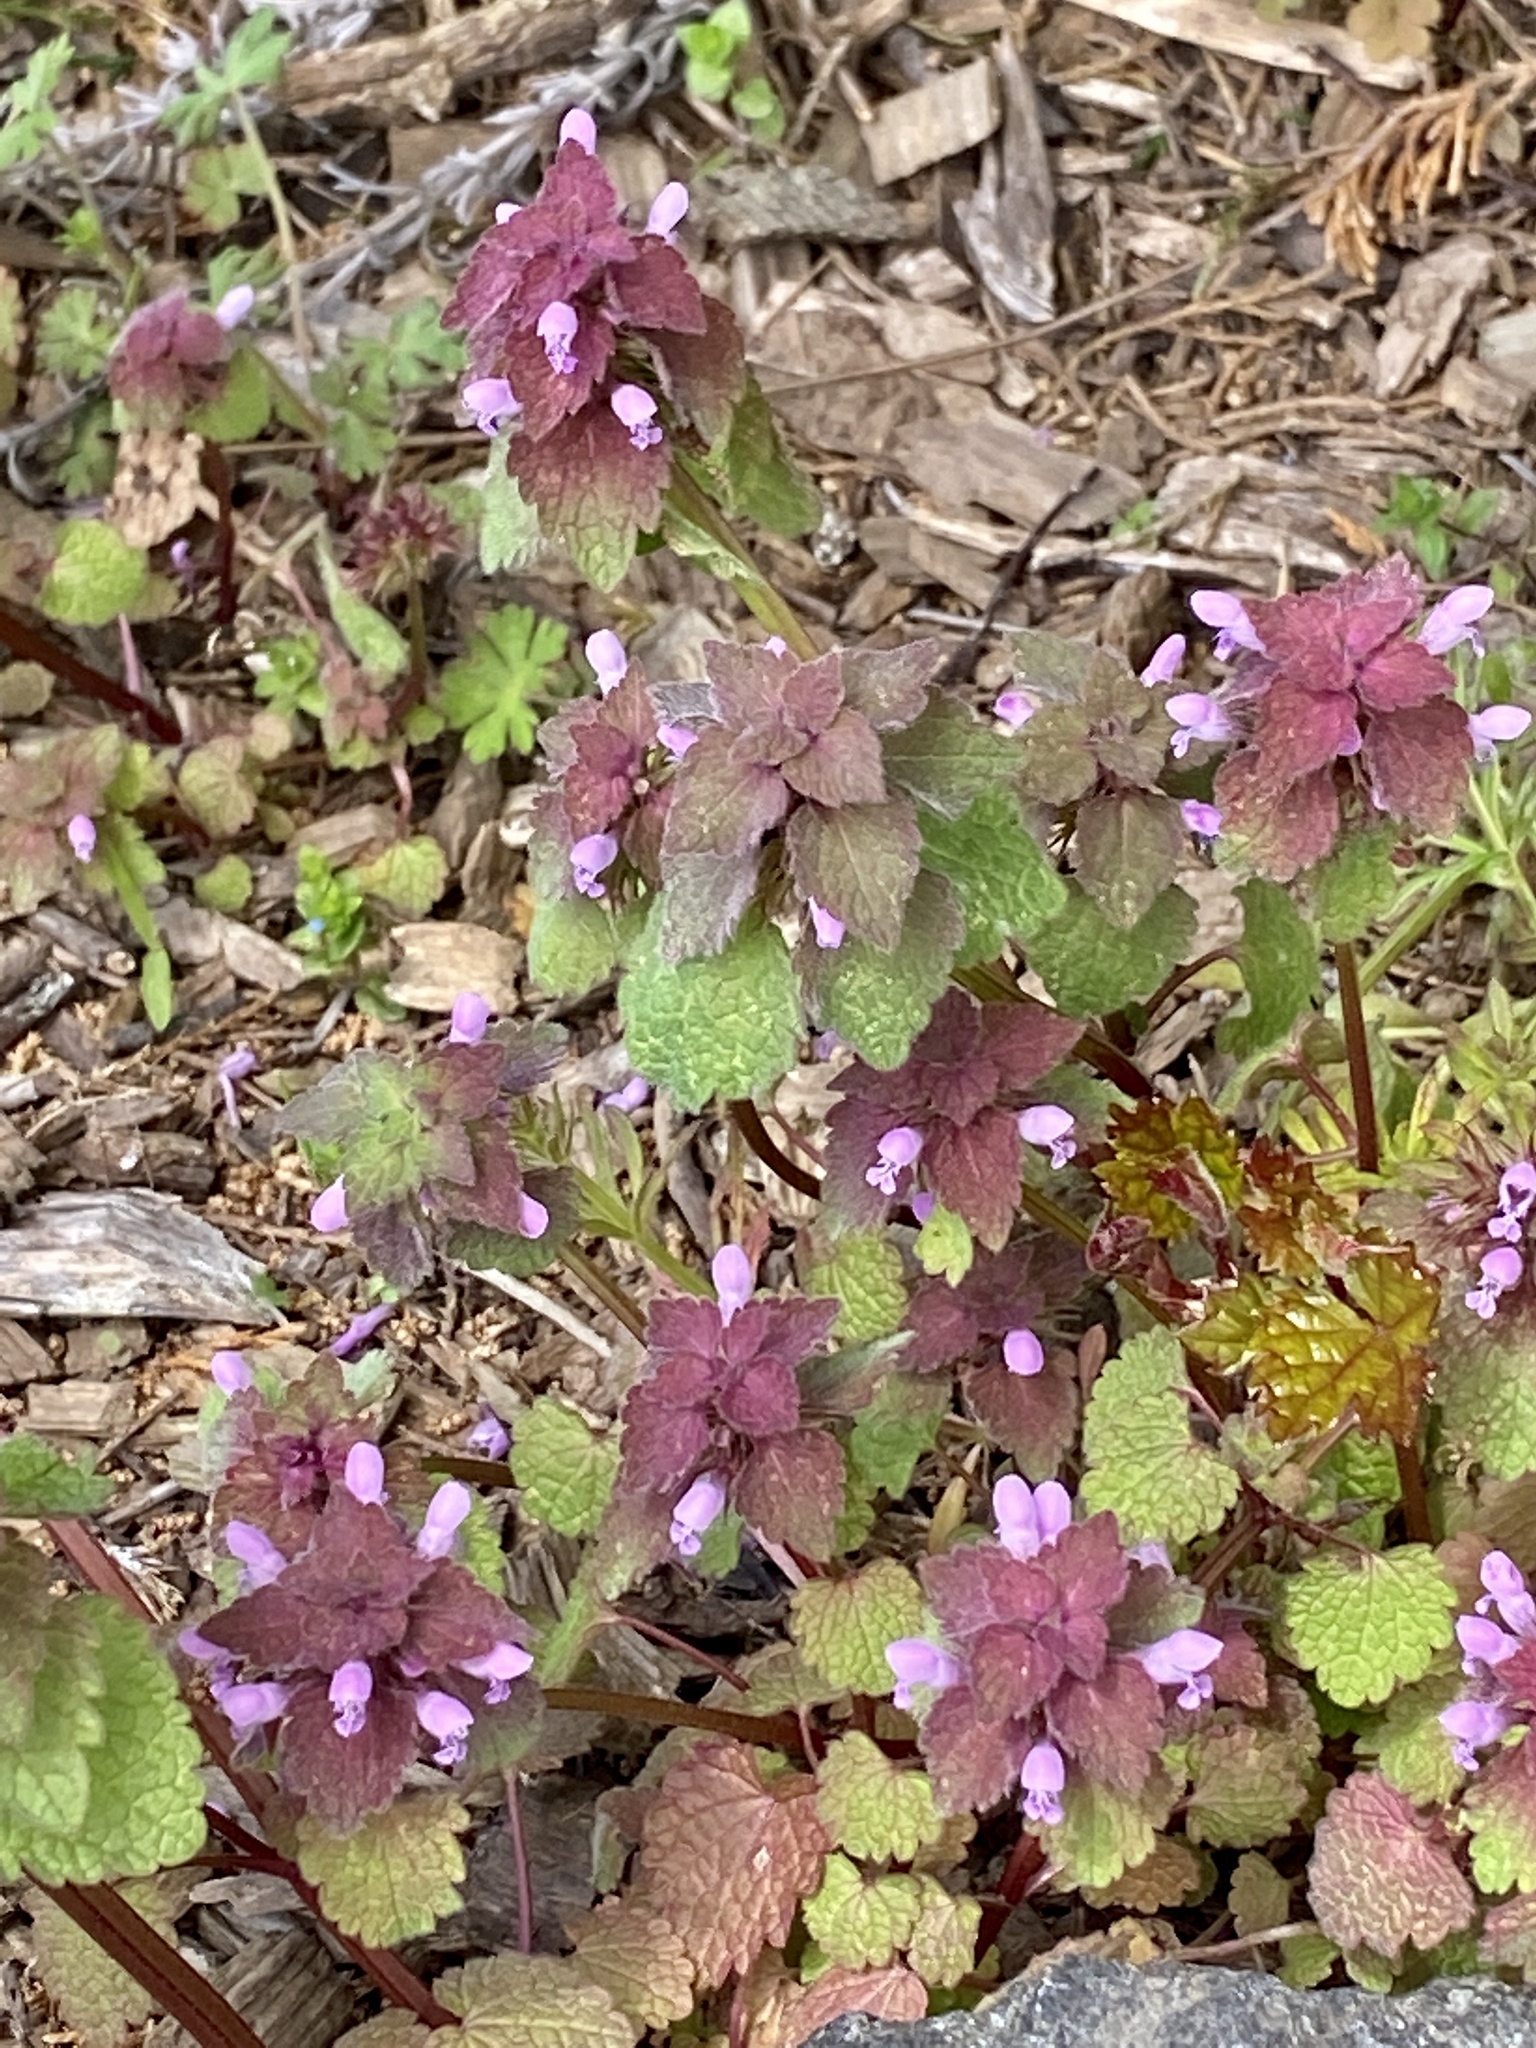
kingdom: Plantae
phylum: Tracheophyta
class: Magnoliopsida
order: Lamiales
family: Lamiaceae
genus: Lamium
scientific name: Lamium purpureum
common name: Red dead-nettle
